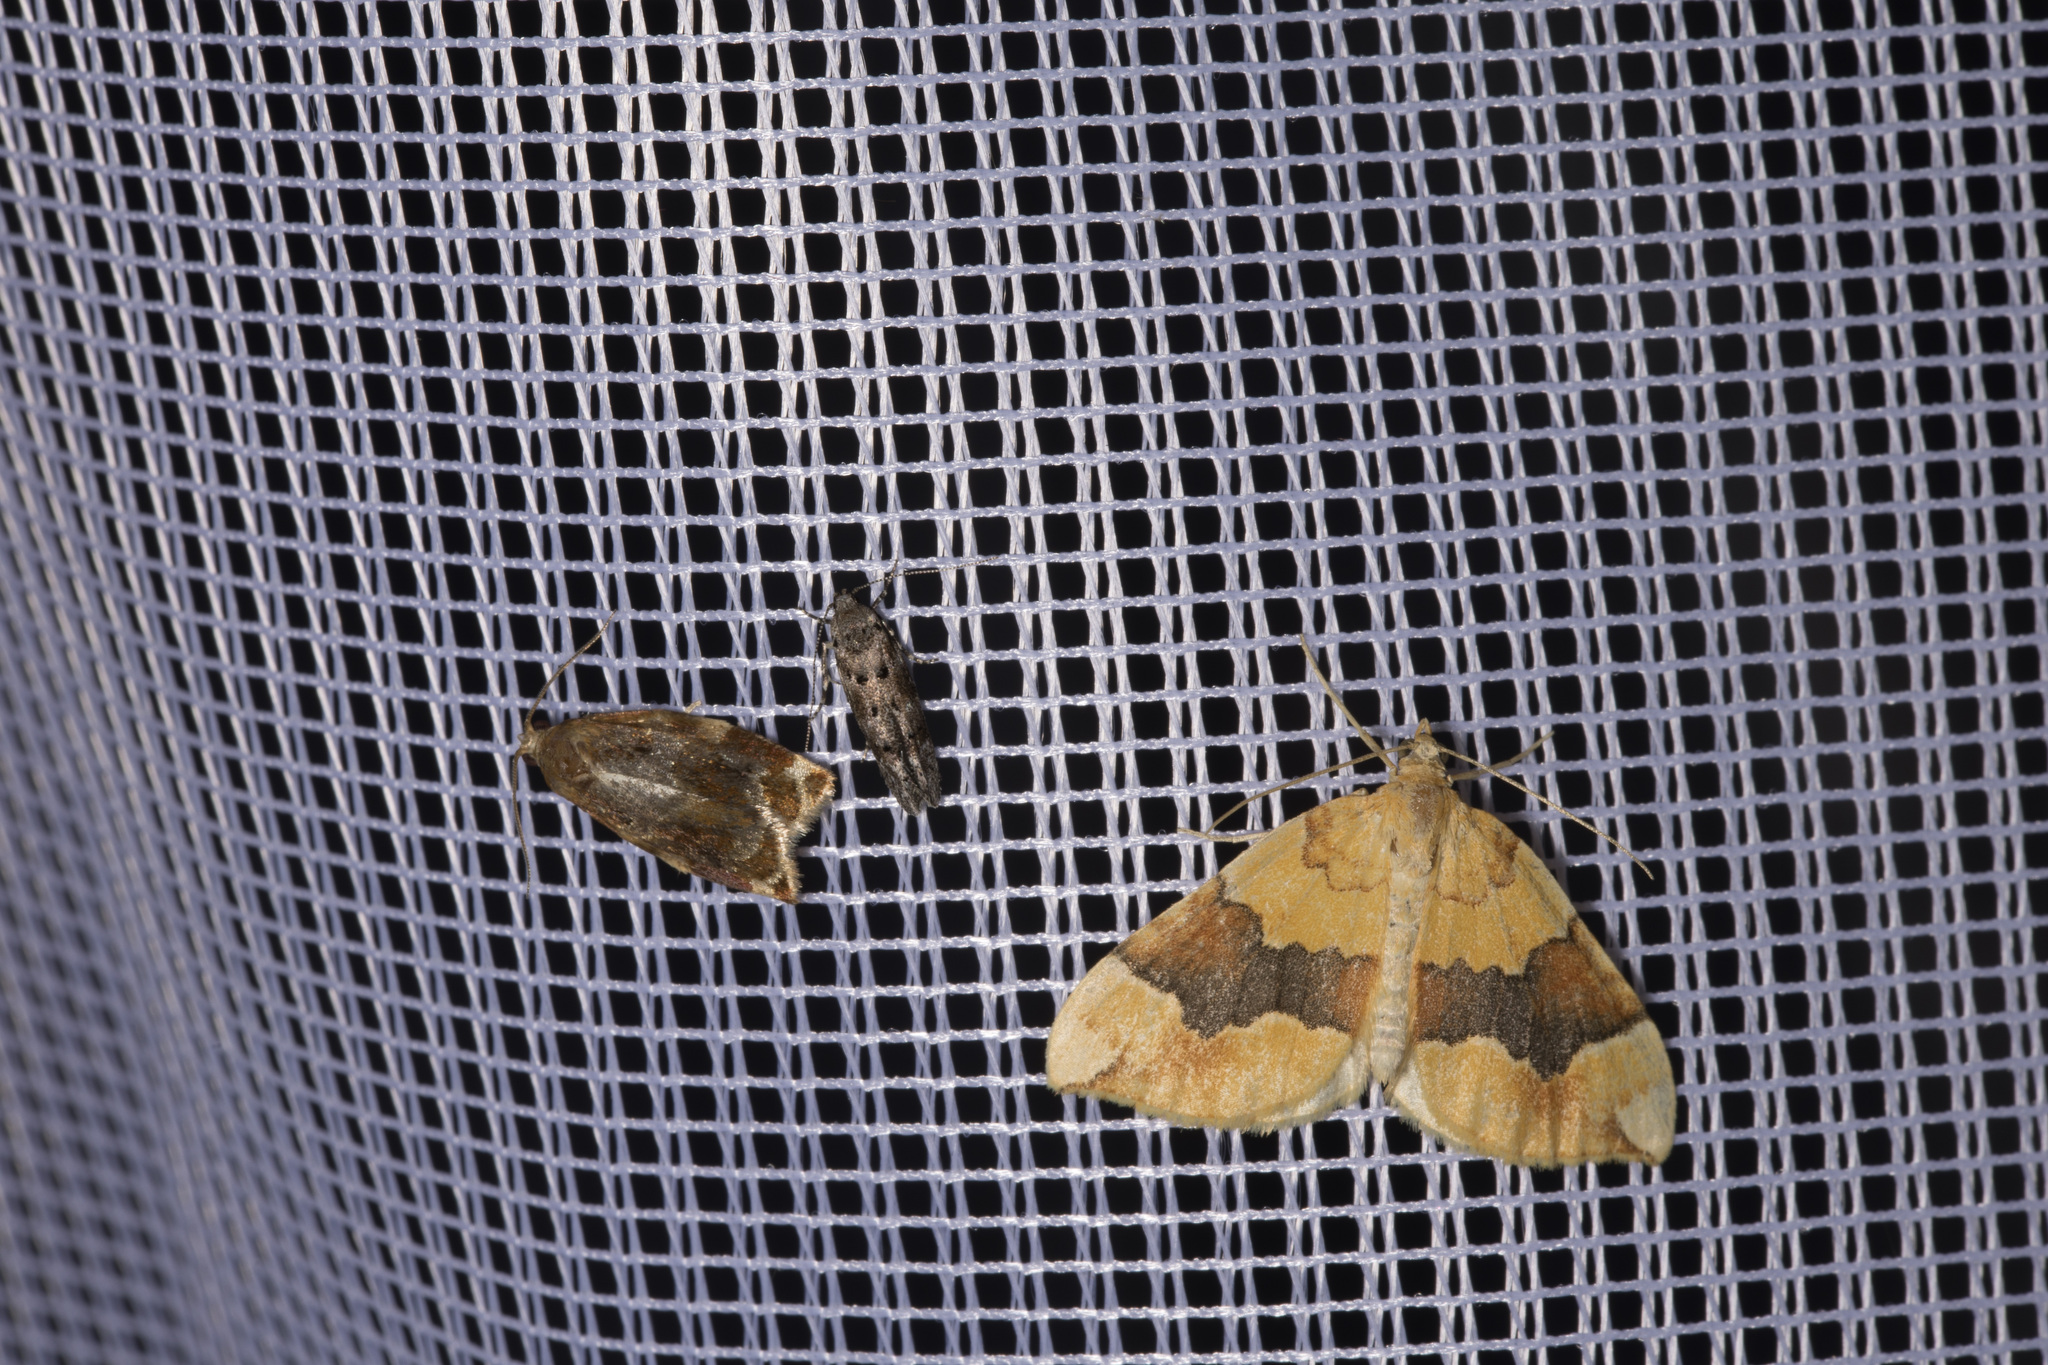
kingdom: Animalia
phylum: Arthropoda
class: Insecta
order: Lepidoptera
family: Geometridae
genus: Cidaria
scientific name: Cidaria fulvata
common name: Barred yellow
